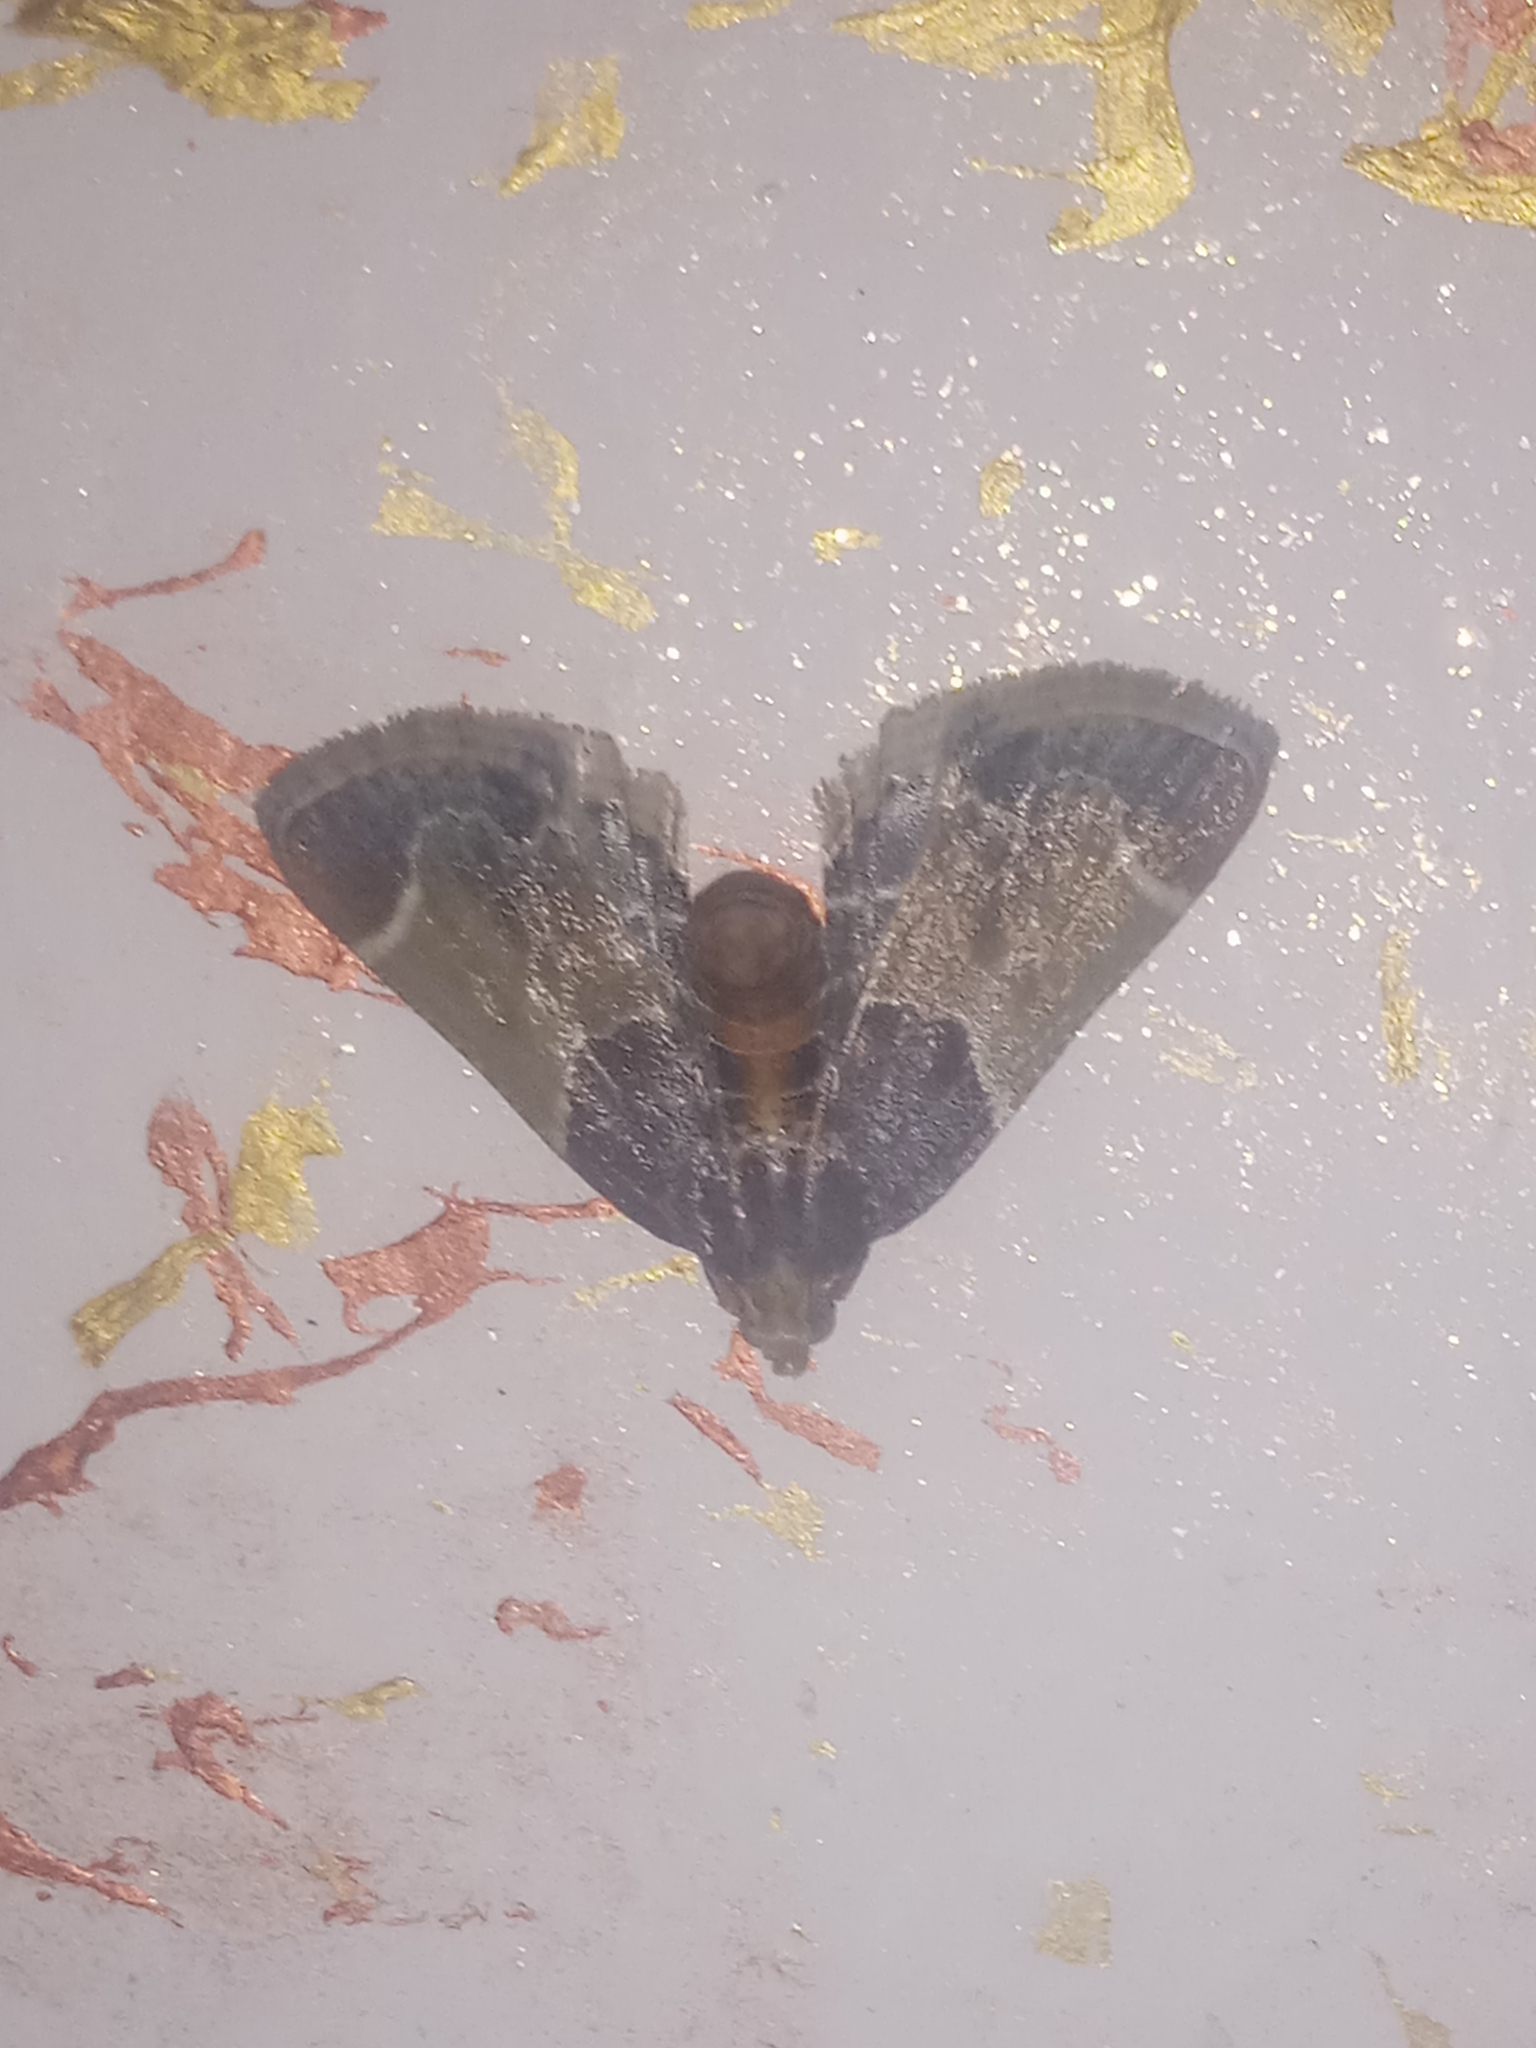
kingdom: Animalia
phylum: Arthropoda
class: Insecta
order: Lepidoptera
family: Pyralidae
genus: Pyralis
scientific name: Pyralis farinalis
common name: Meal moth
